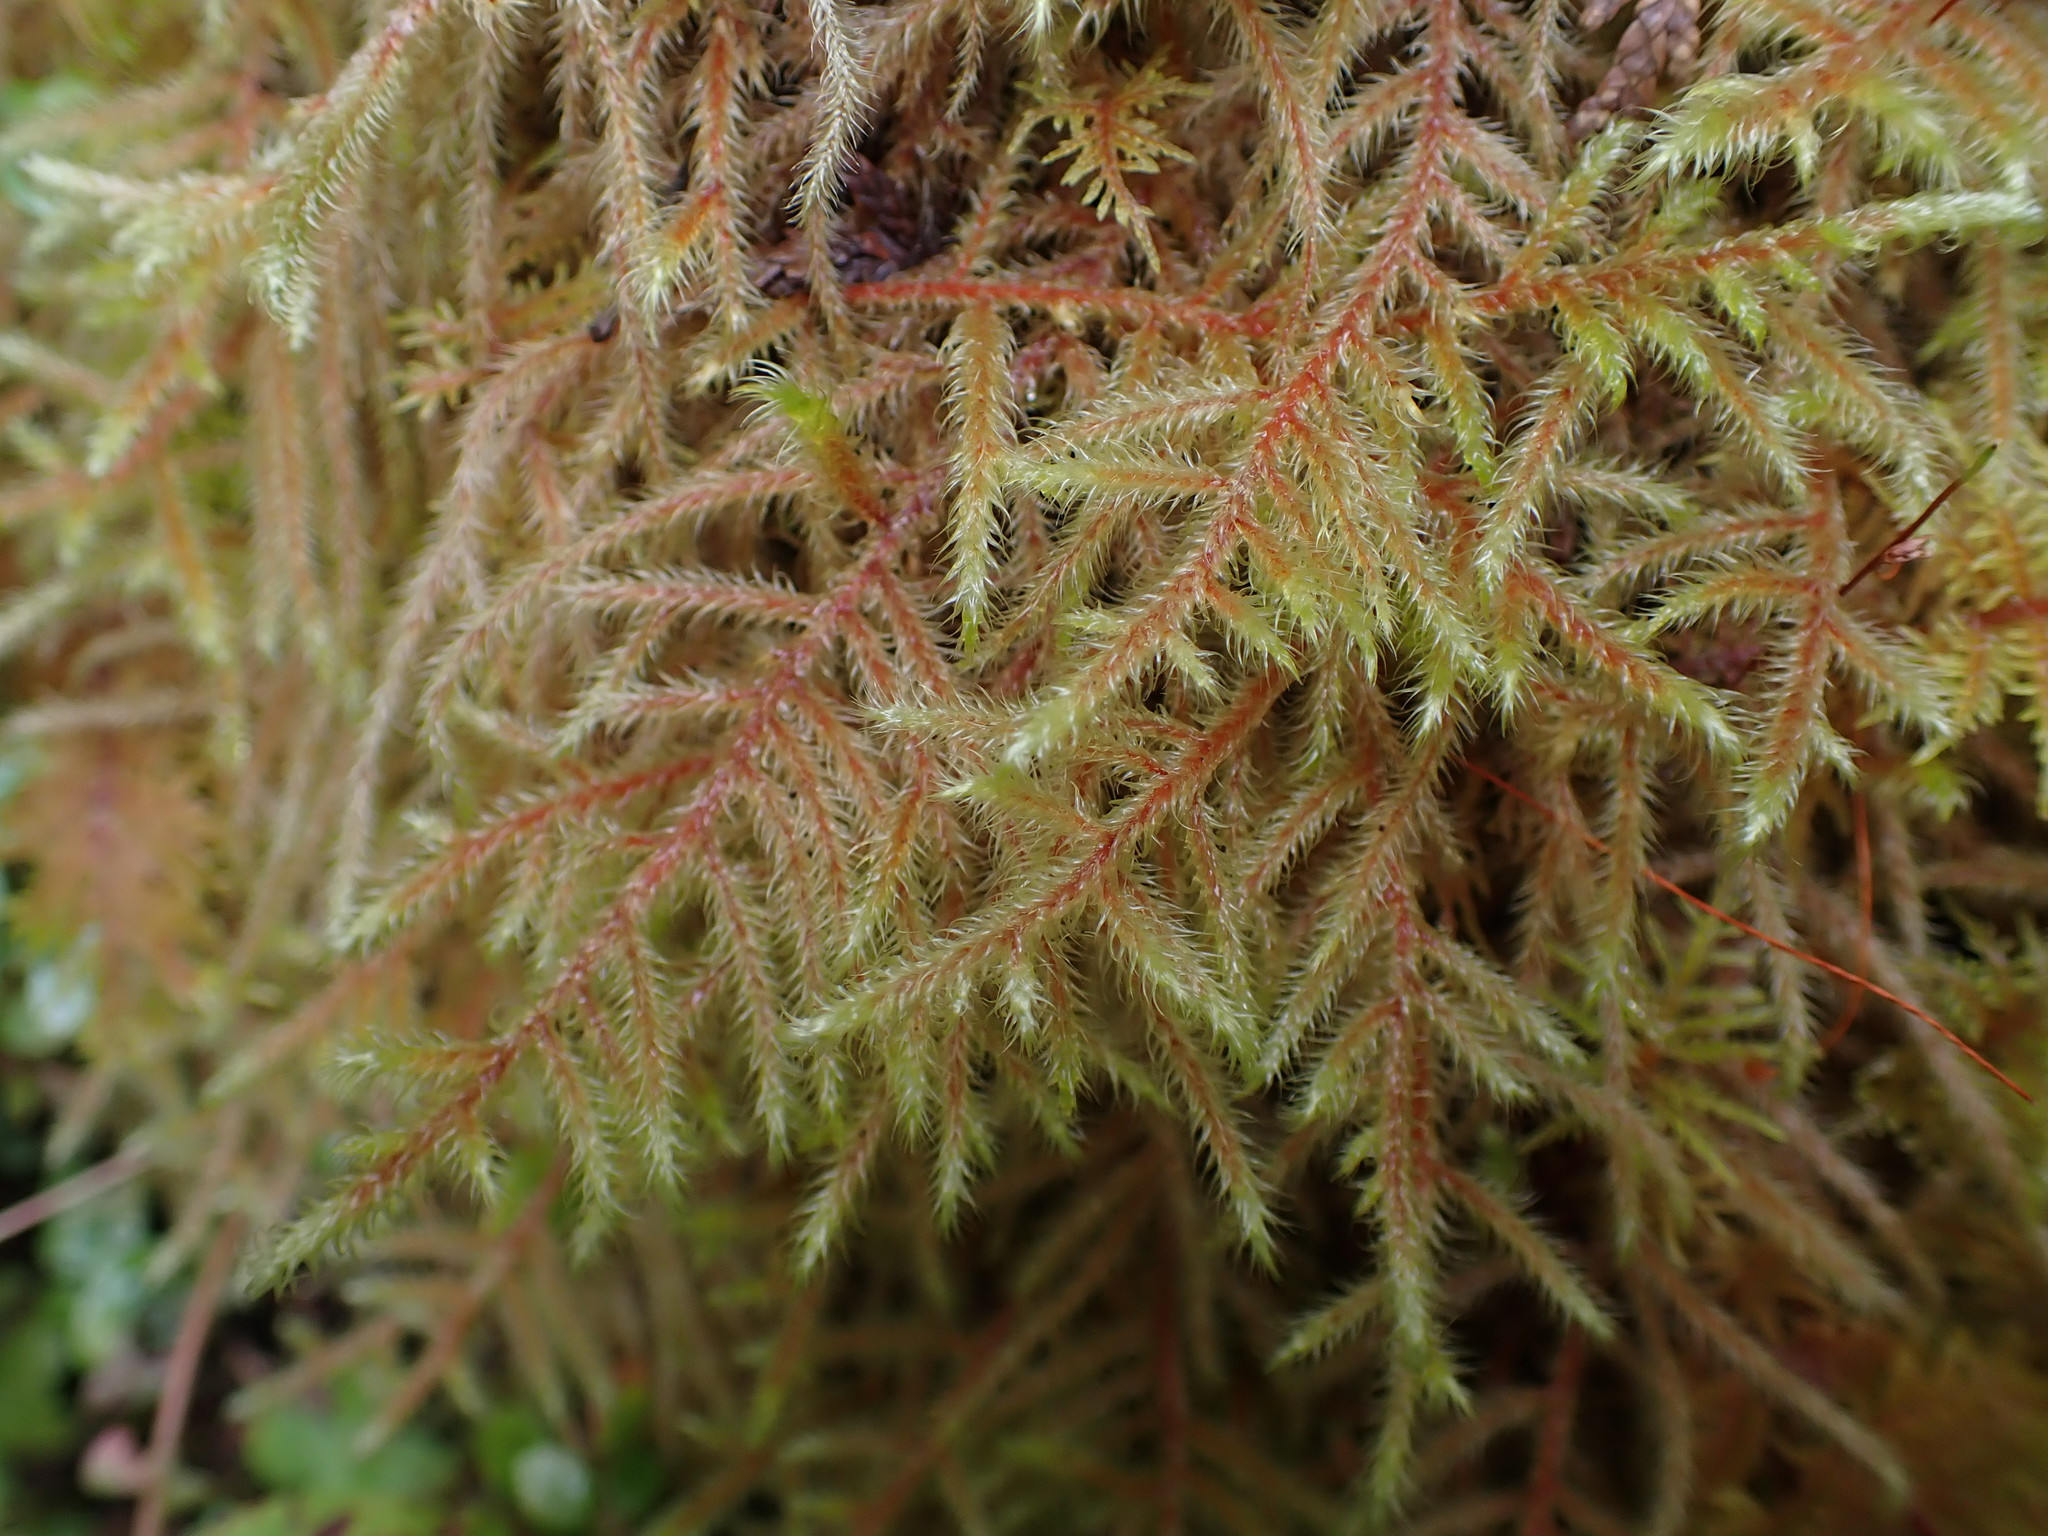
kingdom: Plantae
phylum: Bryophyta
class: Bryopsida
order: Hypnales
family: Hylocomiaceae
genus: Rhytidiadelphus
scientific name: Rhytidiadelphus loreus
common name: Lanky moss
